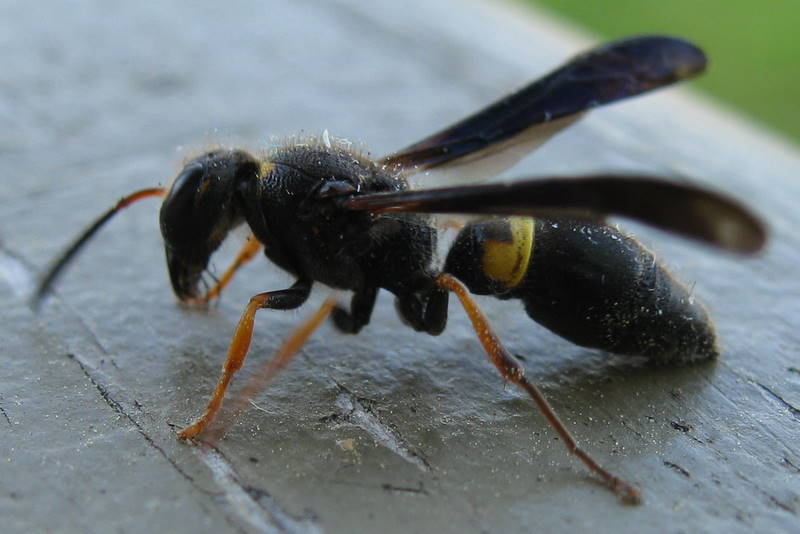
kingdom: Animalia
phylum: Arthropoda
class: Insecta
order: Hymenoptera
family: Vespidae
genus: Ancistrocerus
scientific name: Ancistrocerus unifasciatus
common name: One-banded mason wasp
